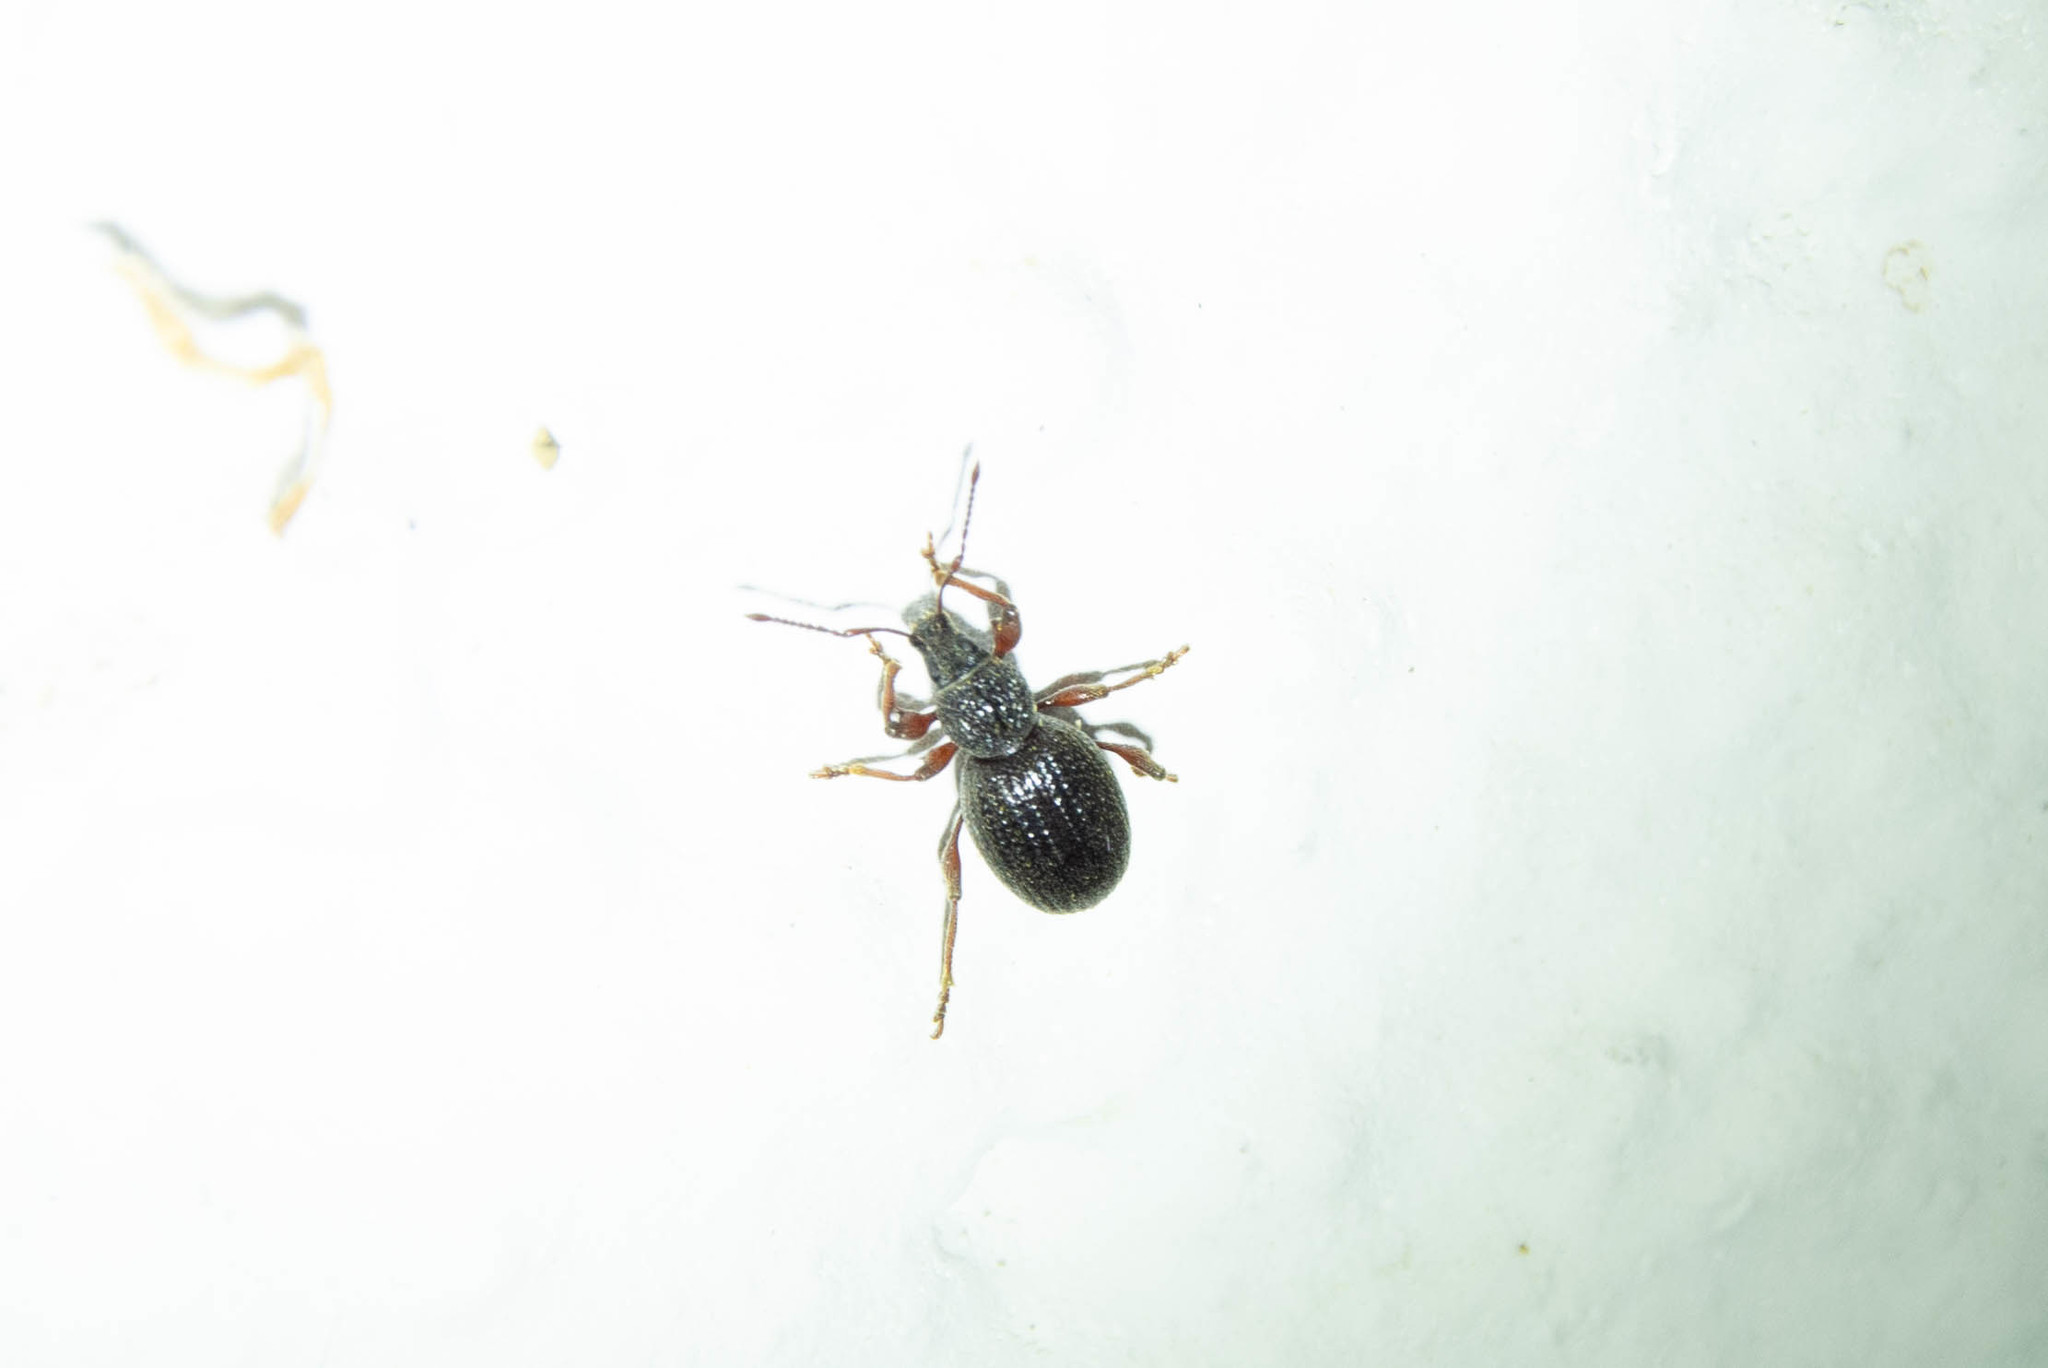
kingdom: Animalia
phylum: Arthropoda
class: Insecta
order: Coleoptera
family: Curculionidae
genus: Otiorhynchus
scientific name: Otiorhynchus ovatus
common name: Strawberry root weevil
